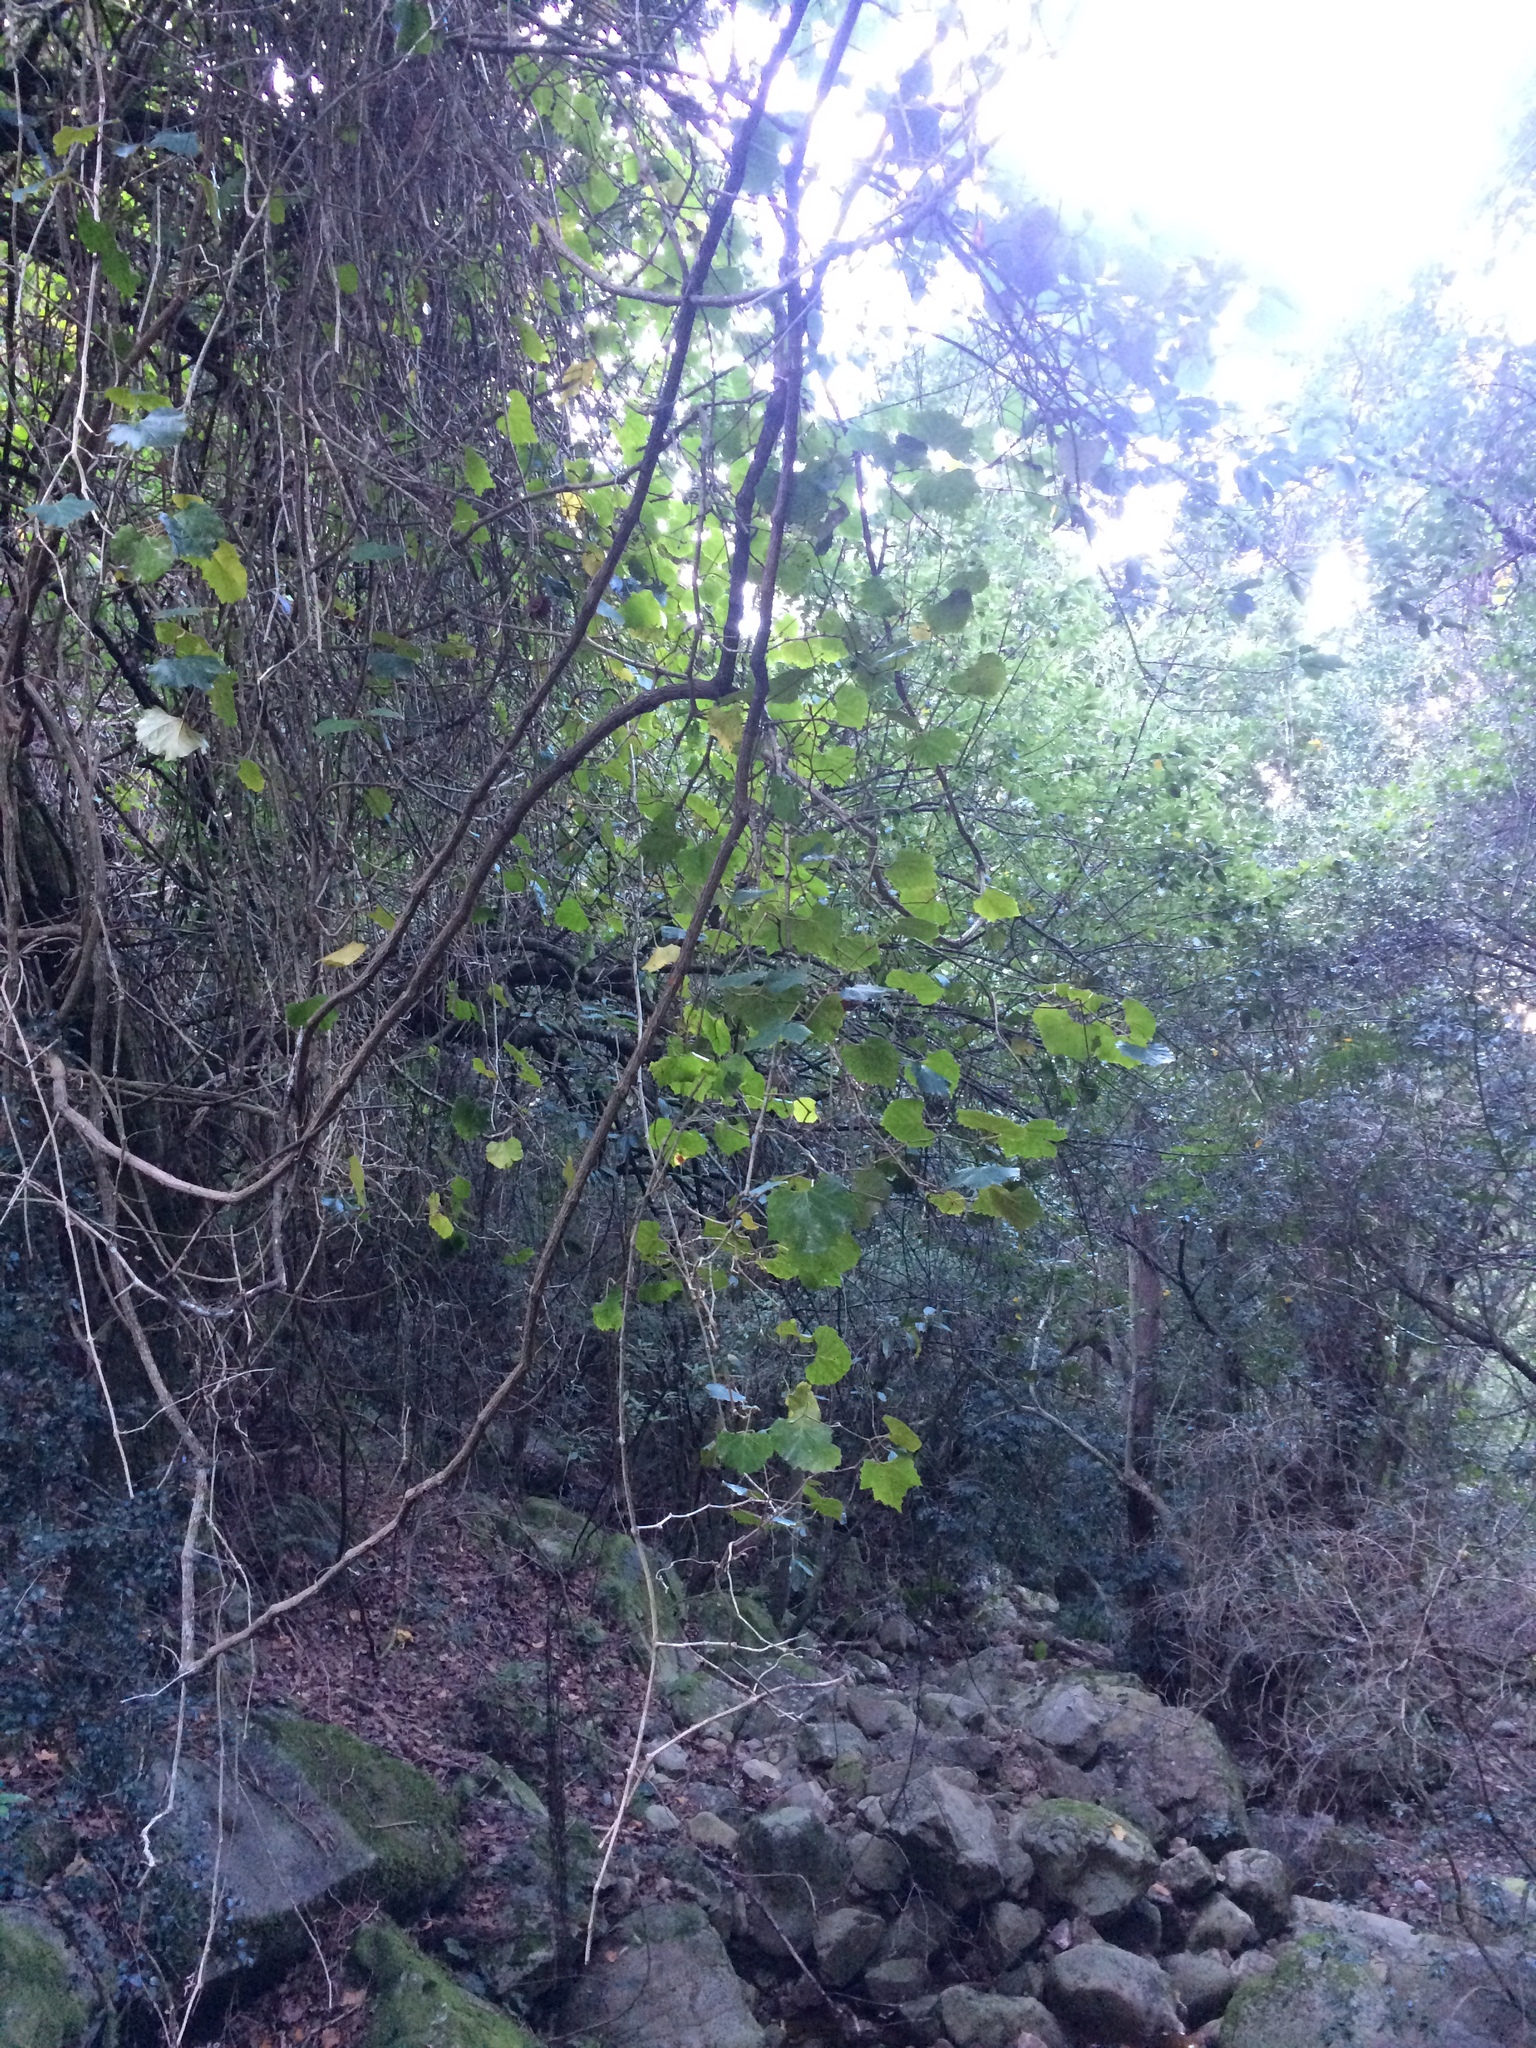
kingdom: Plantae
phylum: Tracheophyta
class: Magnoliopsida
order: Vitales
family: Vitaceae
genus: Rhoicissus
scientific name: Rhoicissus tomentosa
